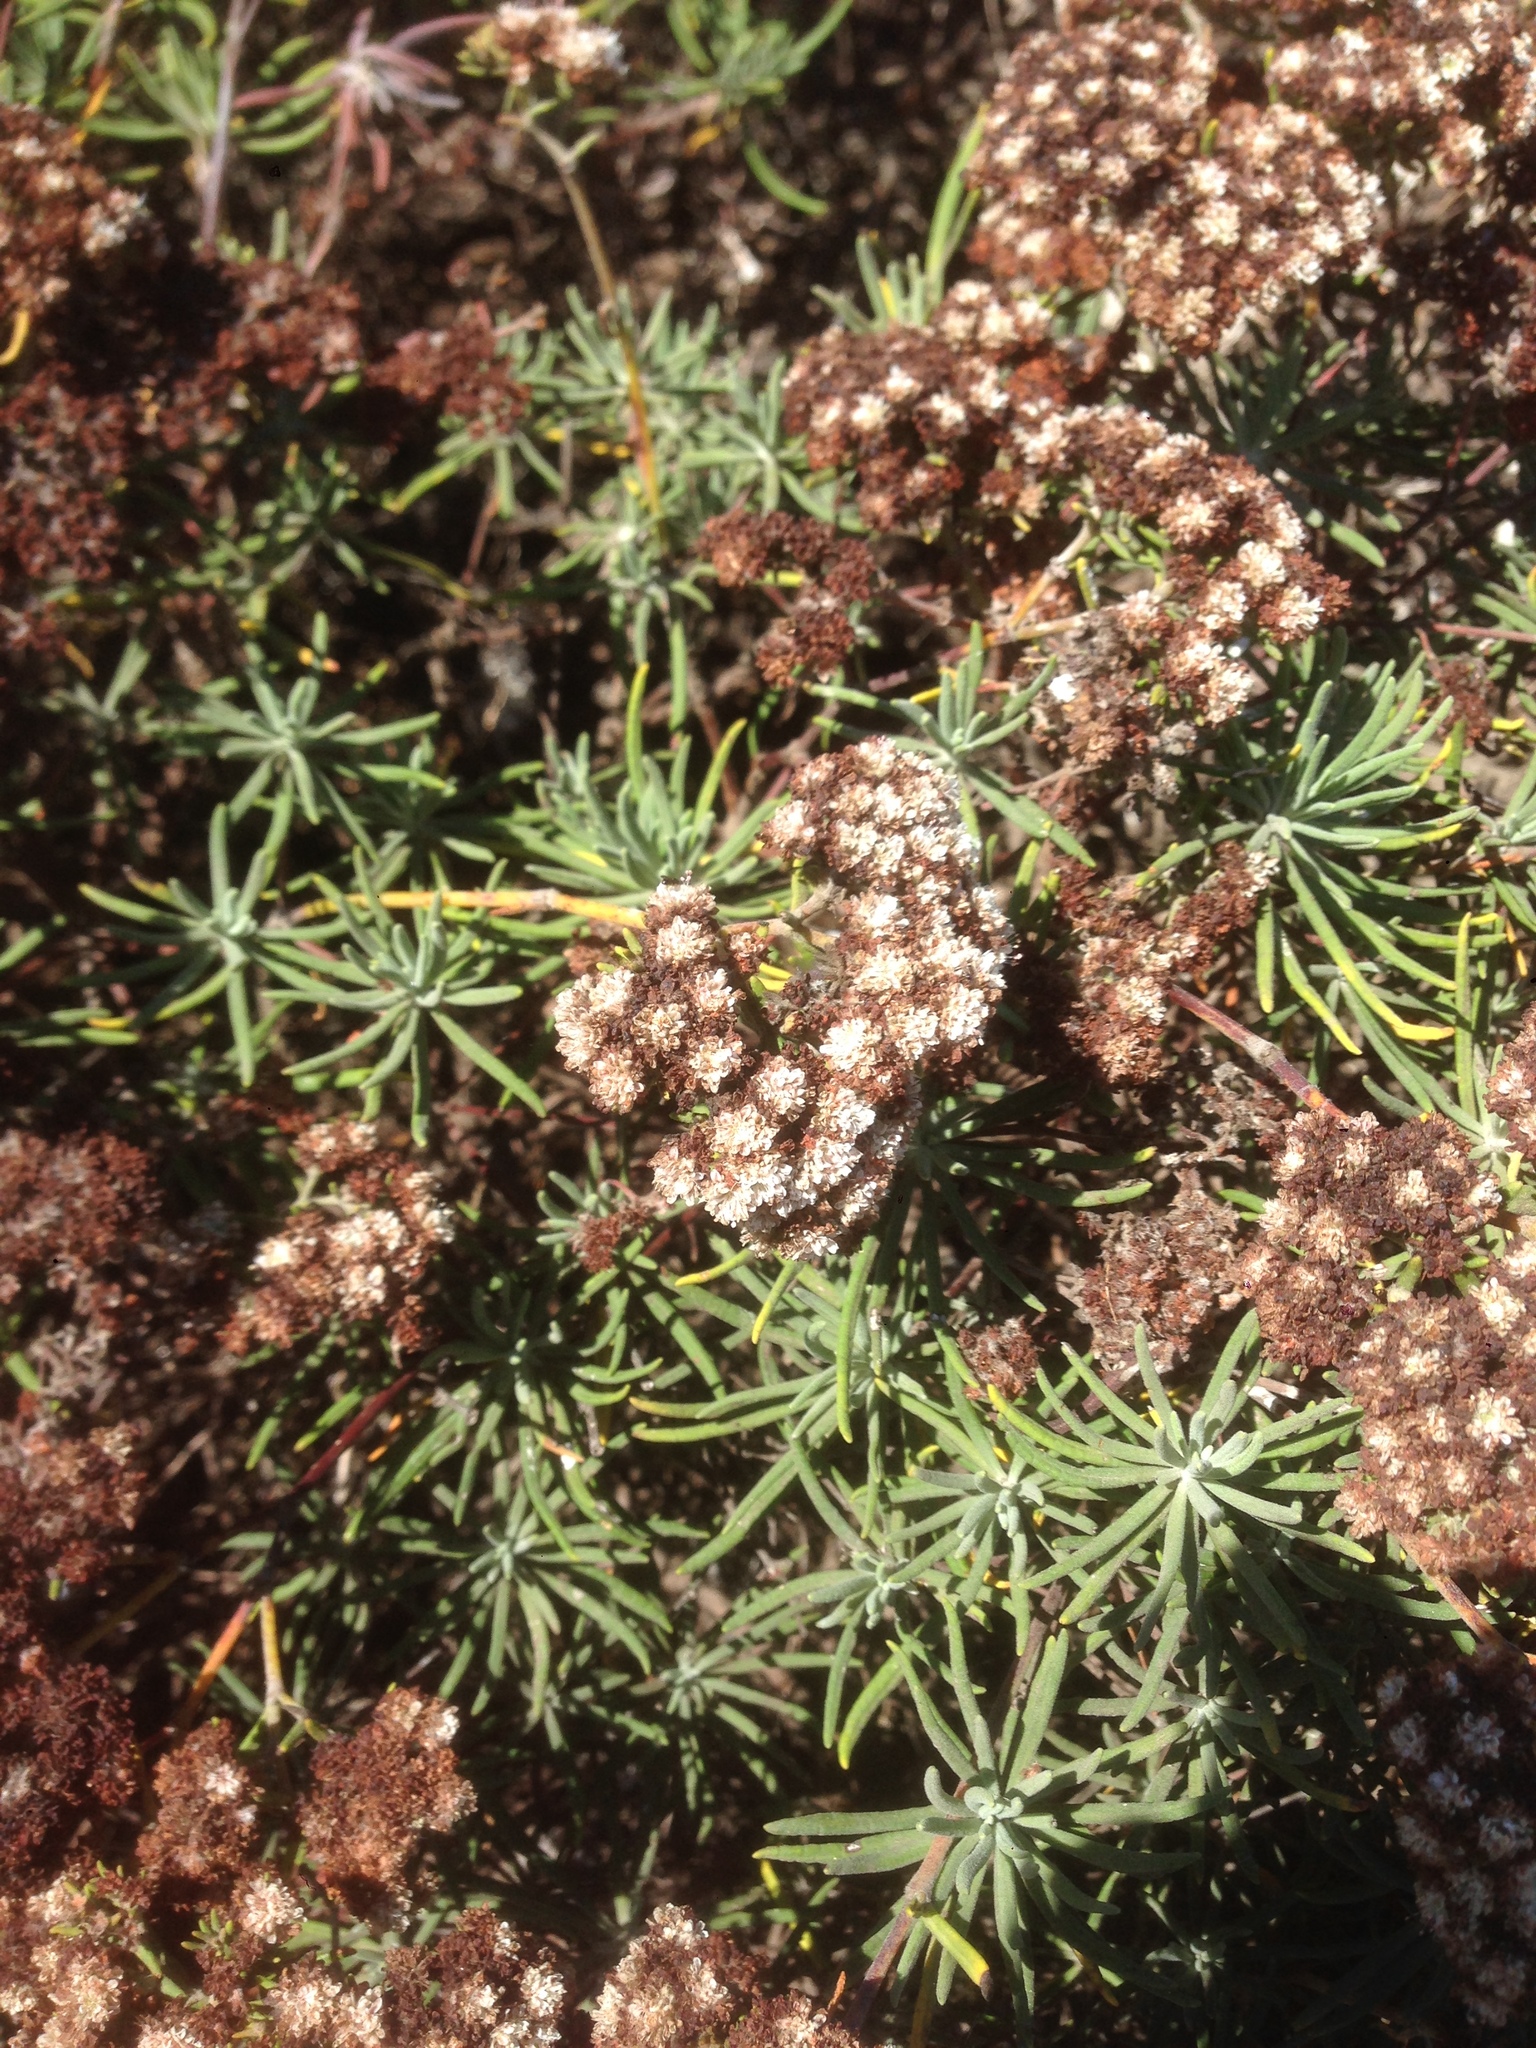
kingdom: Plantae
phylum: Tracheophyta
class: Magnoliopsida
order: Caryophyllales
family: Polygonaceae
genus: Eriogonum
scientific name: Eriogonum arborescens
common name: Island buckwheat
